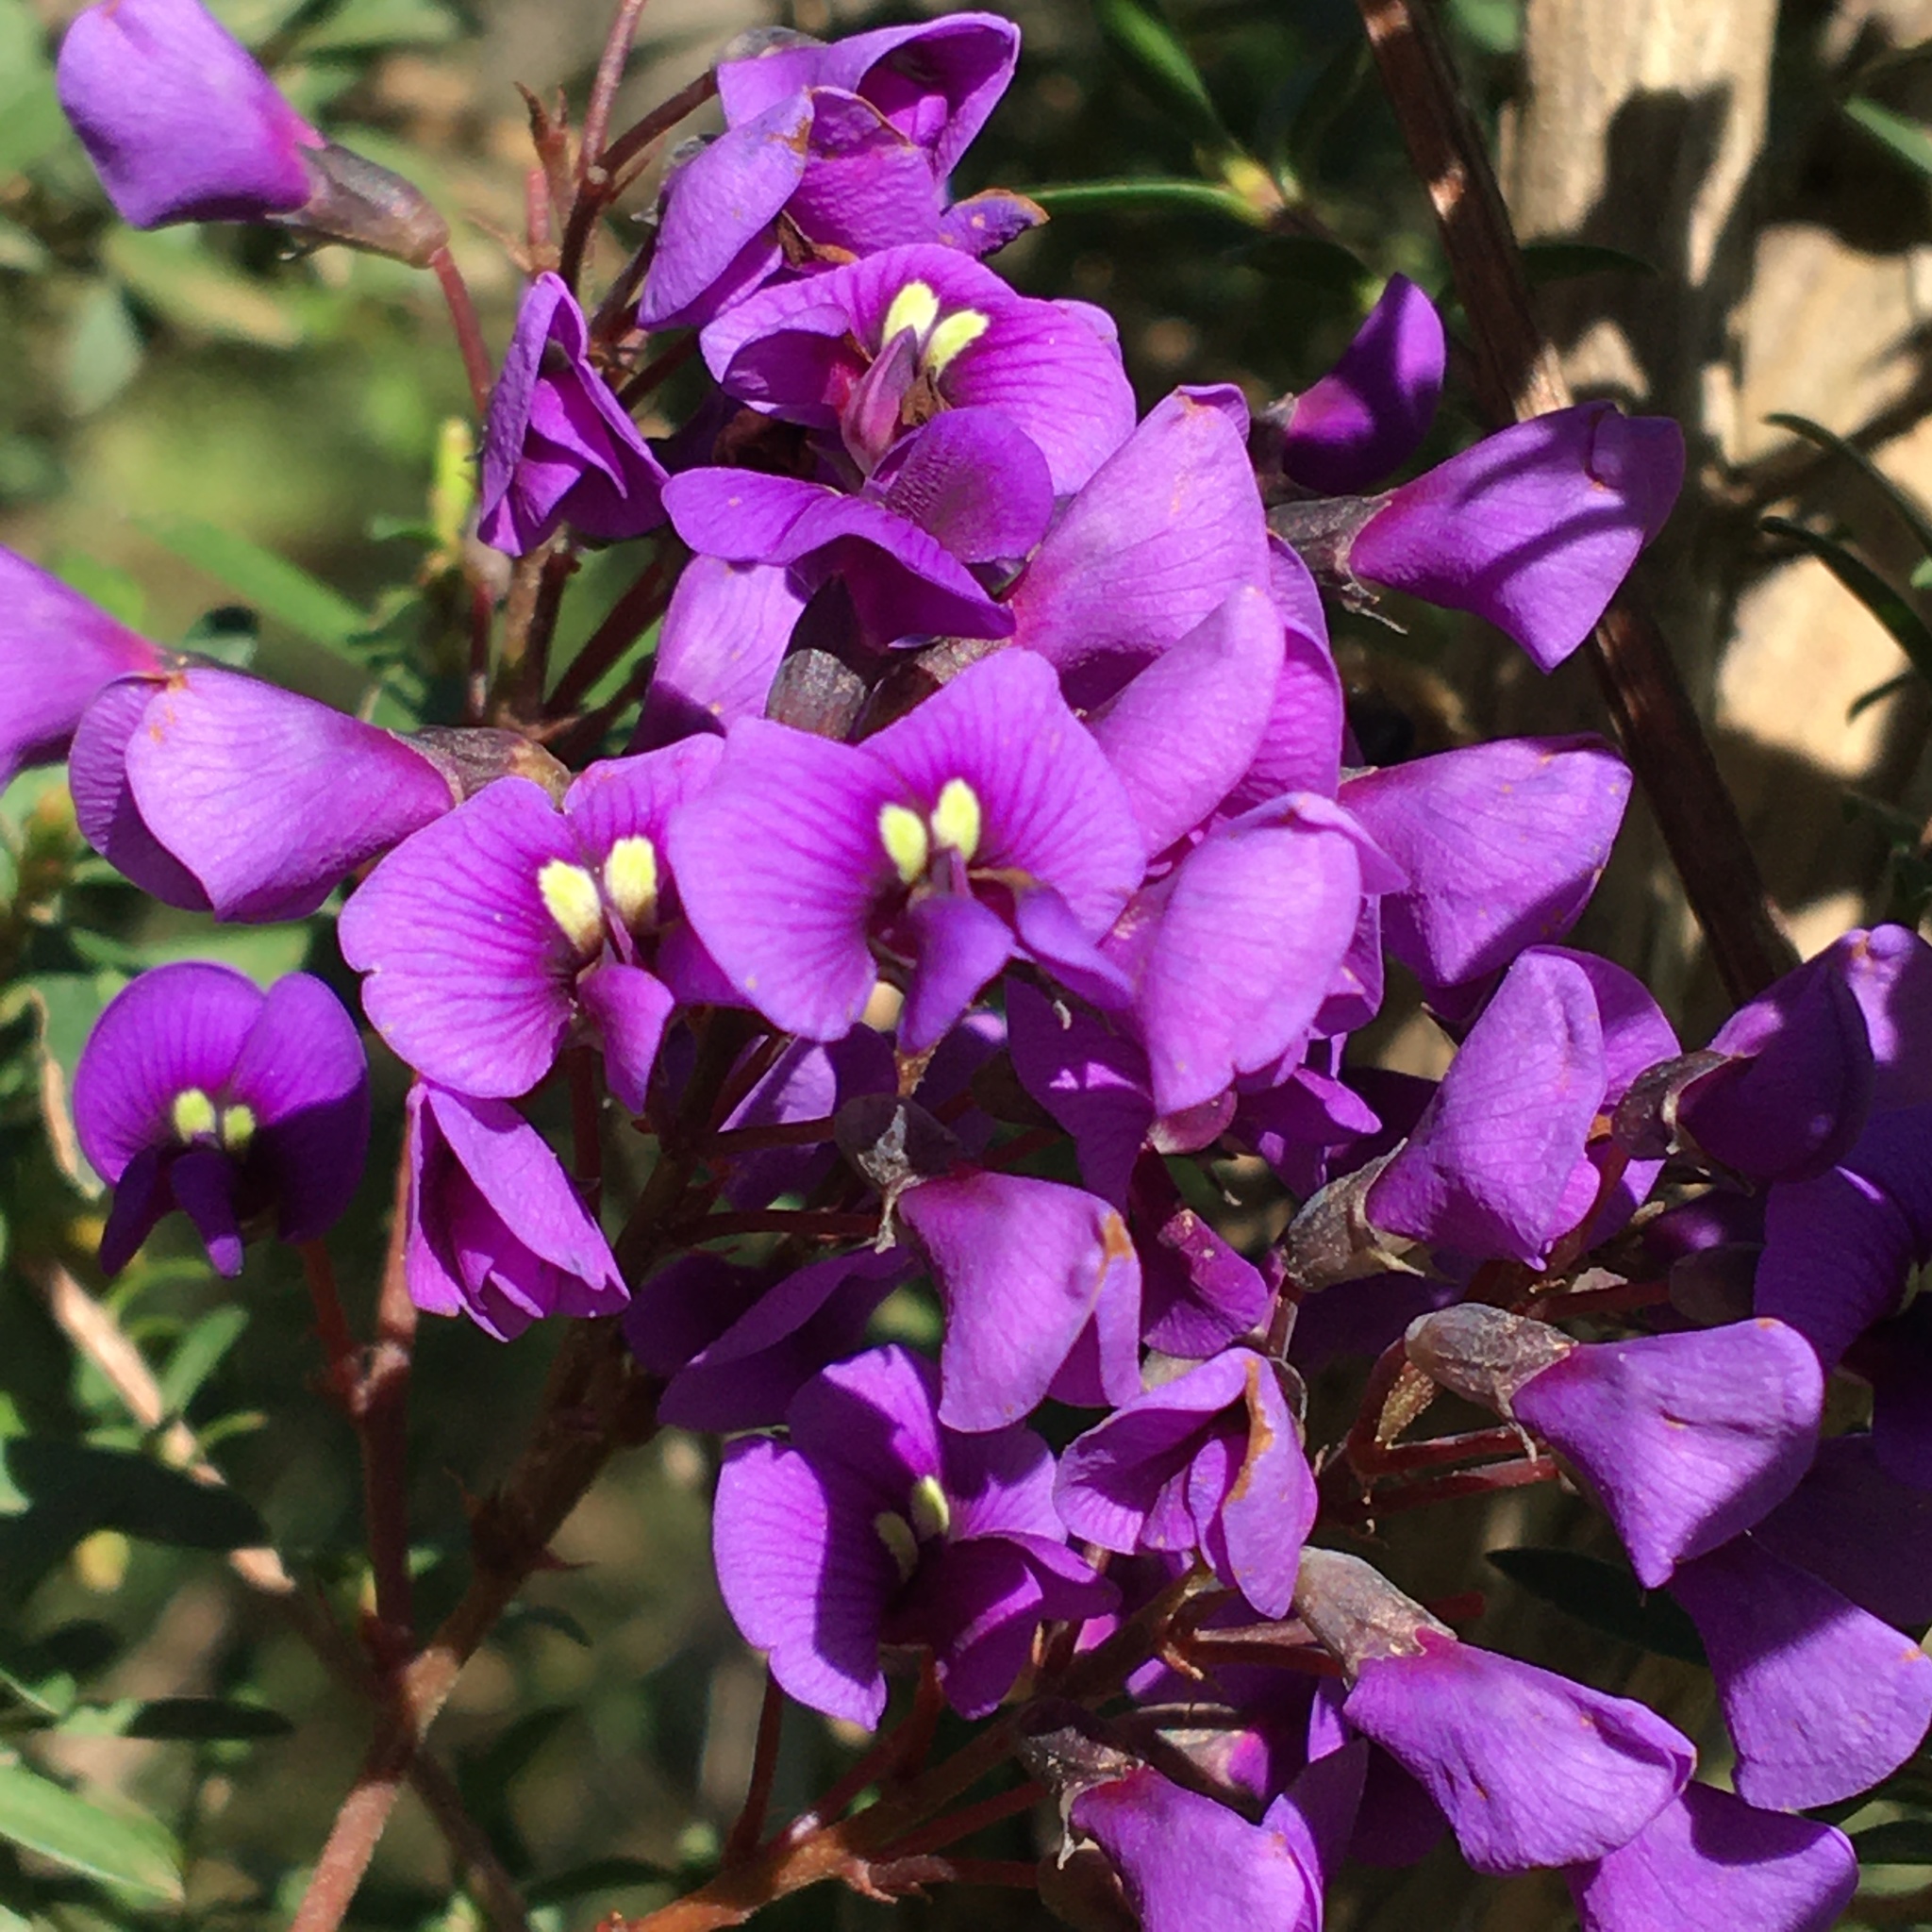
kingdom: Plantae
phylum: Tracheophyta
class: Magnoliopsida
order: Fabales
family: Fabaceae
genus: Hardenbergia
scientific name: Hardenbergia violacea
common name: Coral-pea
